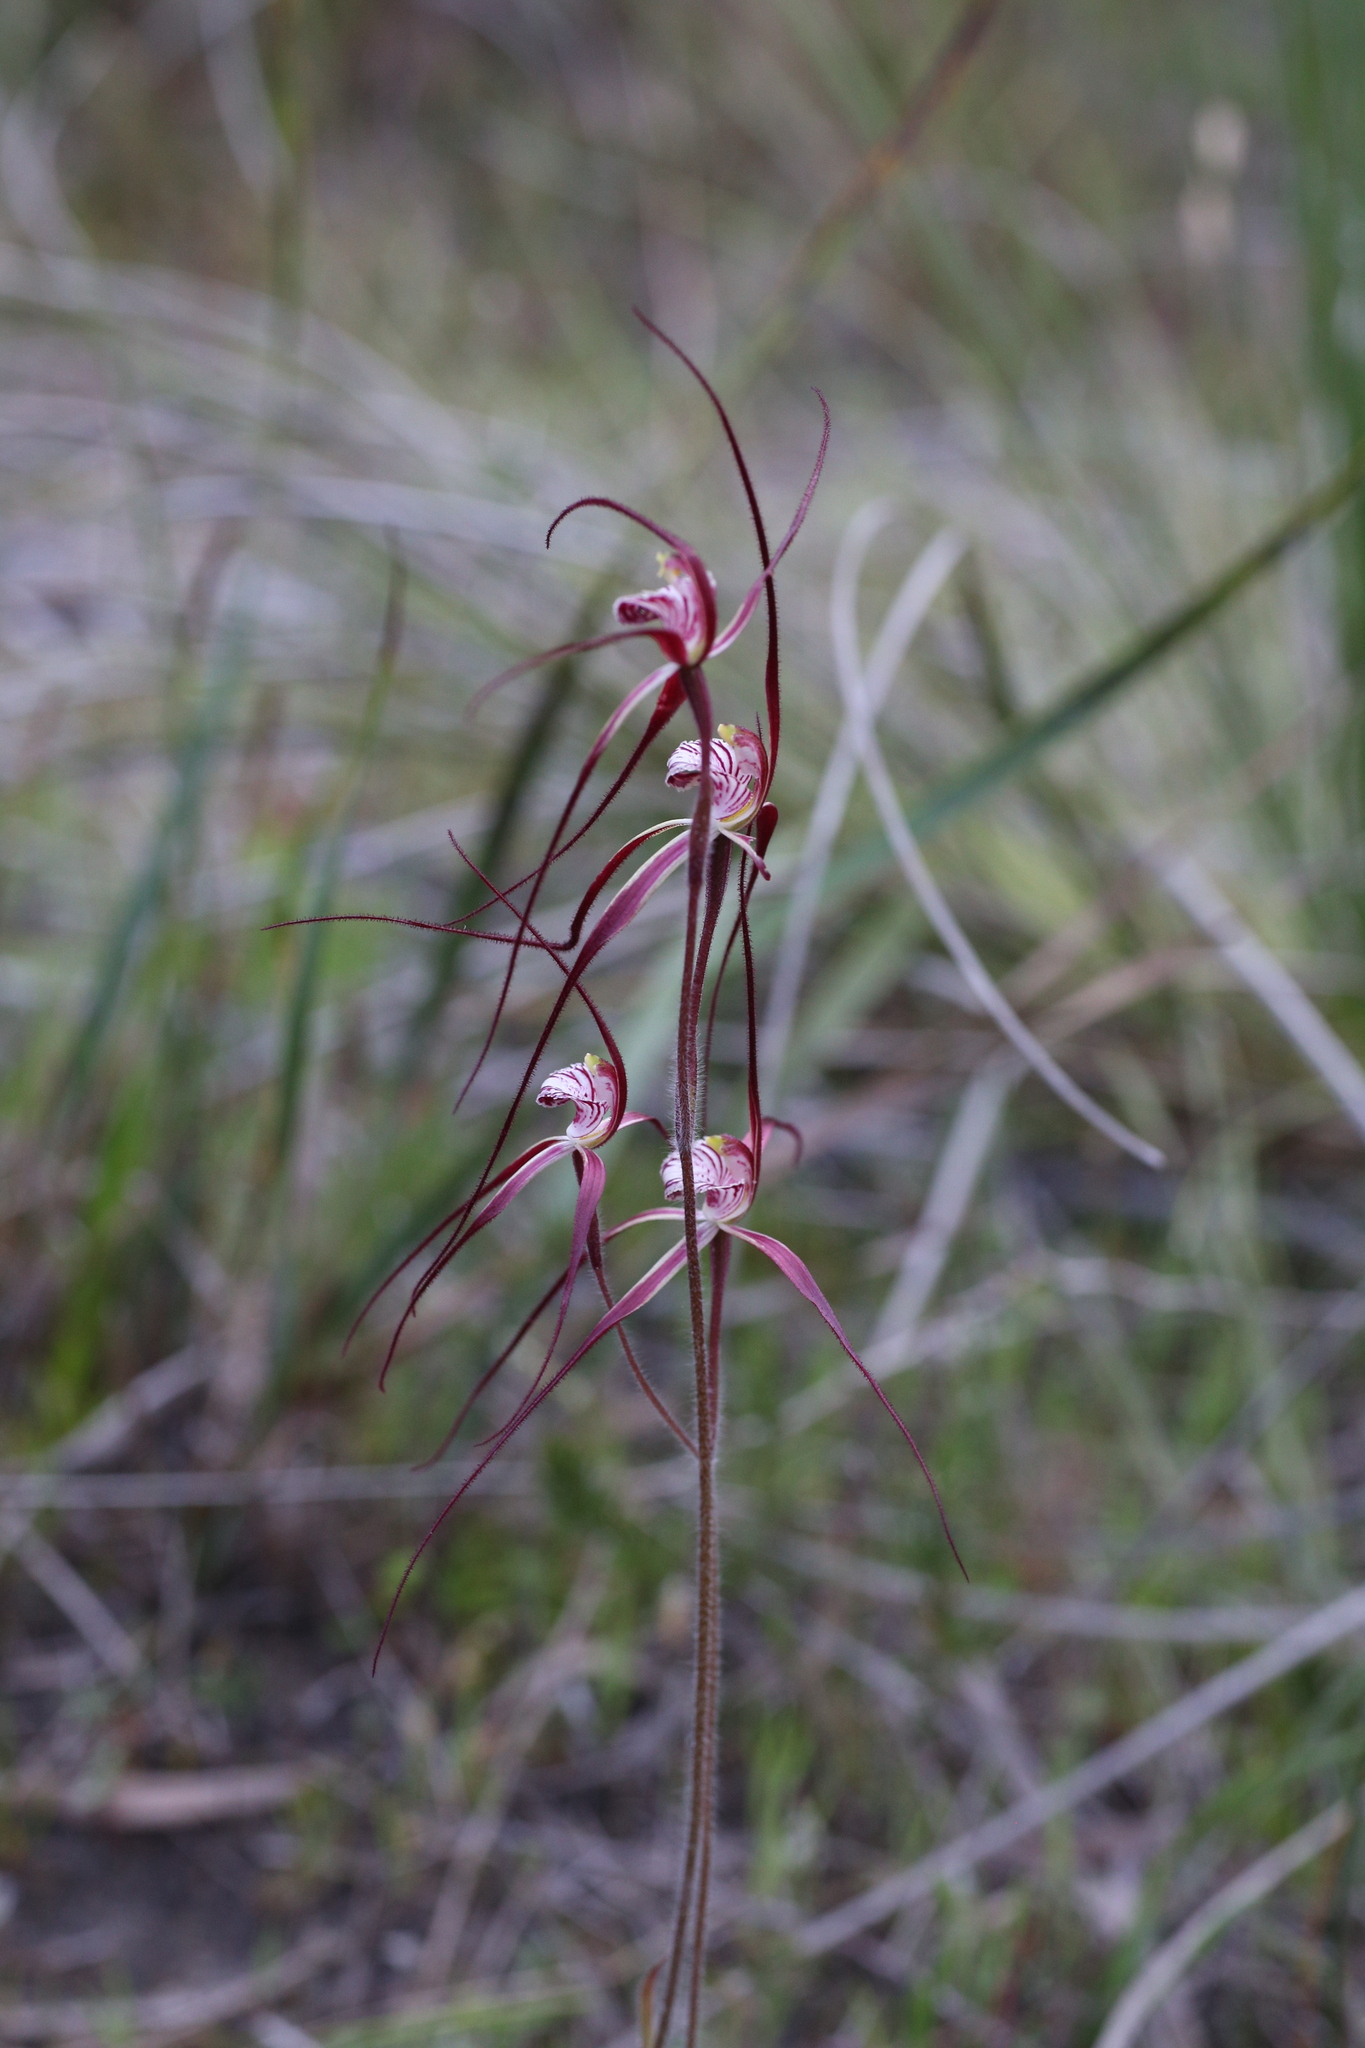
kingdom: Plantae
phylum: Tracheophyta
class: Liliopsida
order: Asparagales
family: Orchidaceae
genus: Caladenia
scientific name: Caladenia chapmanii
